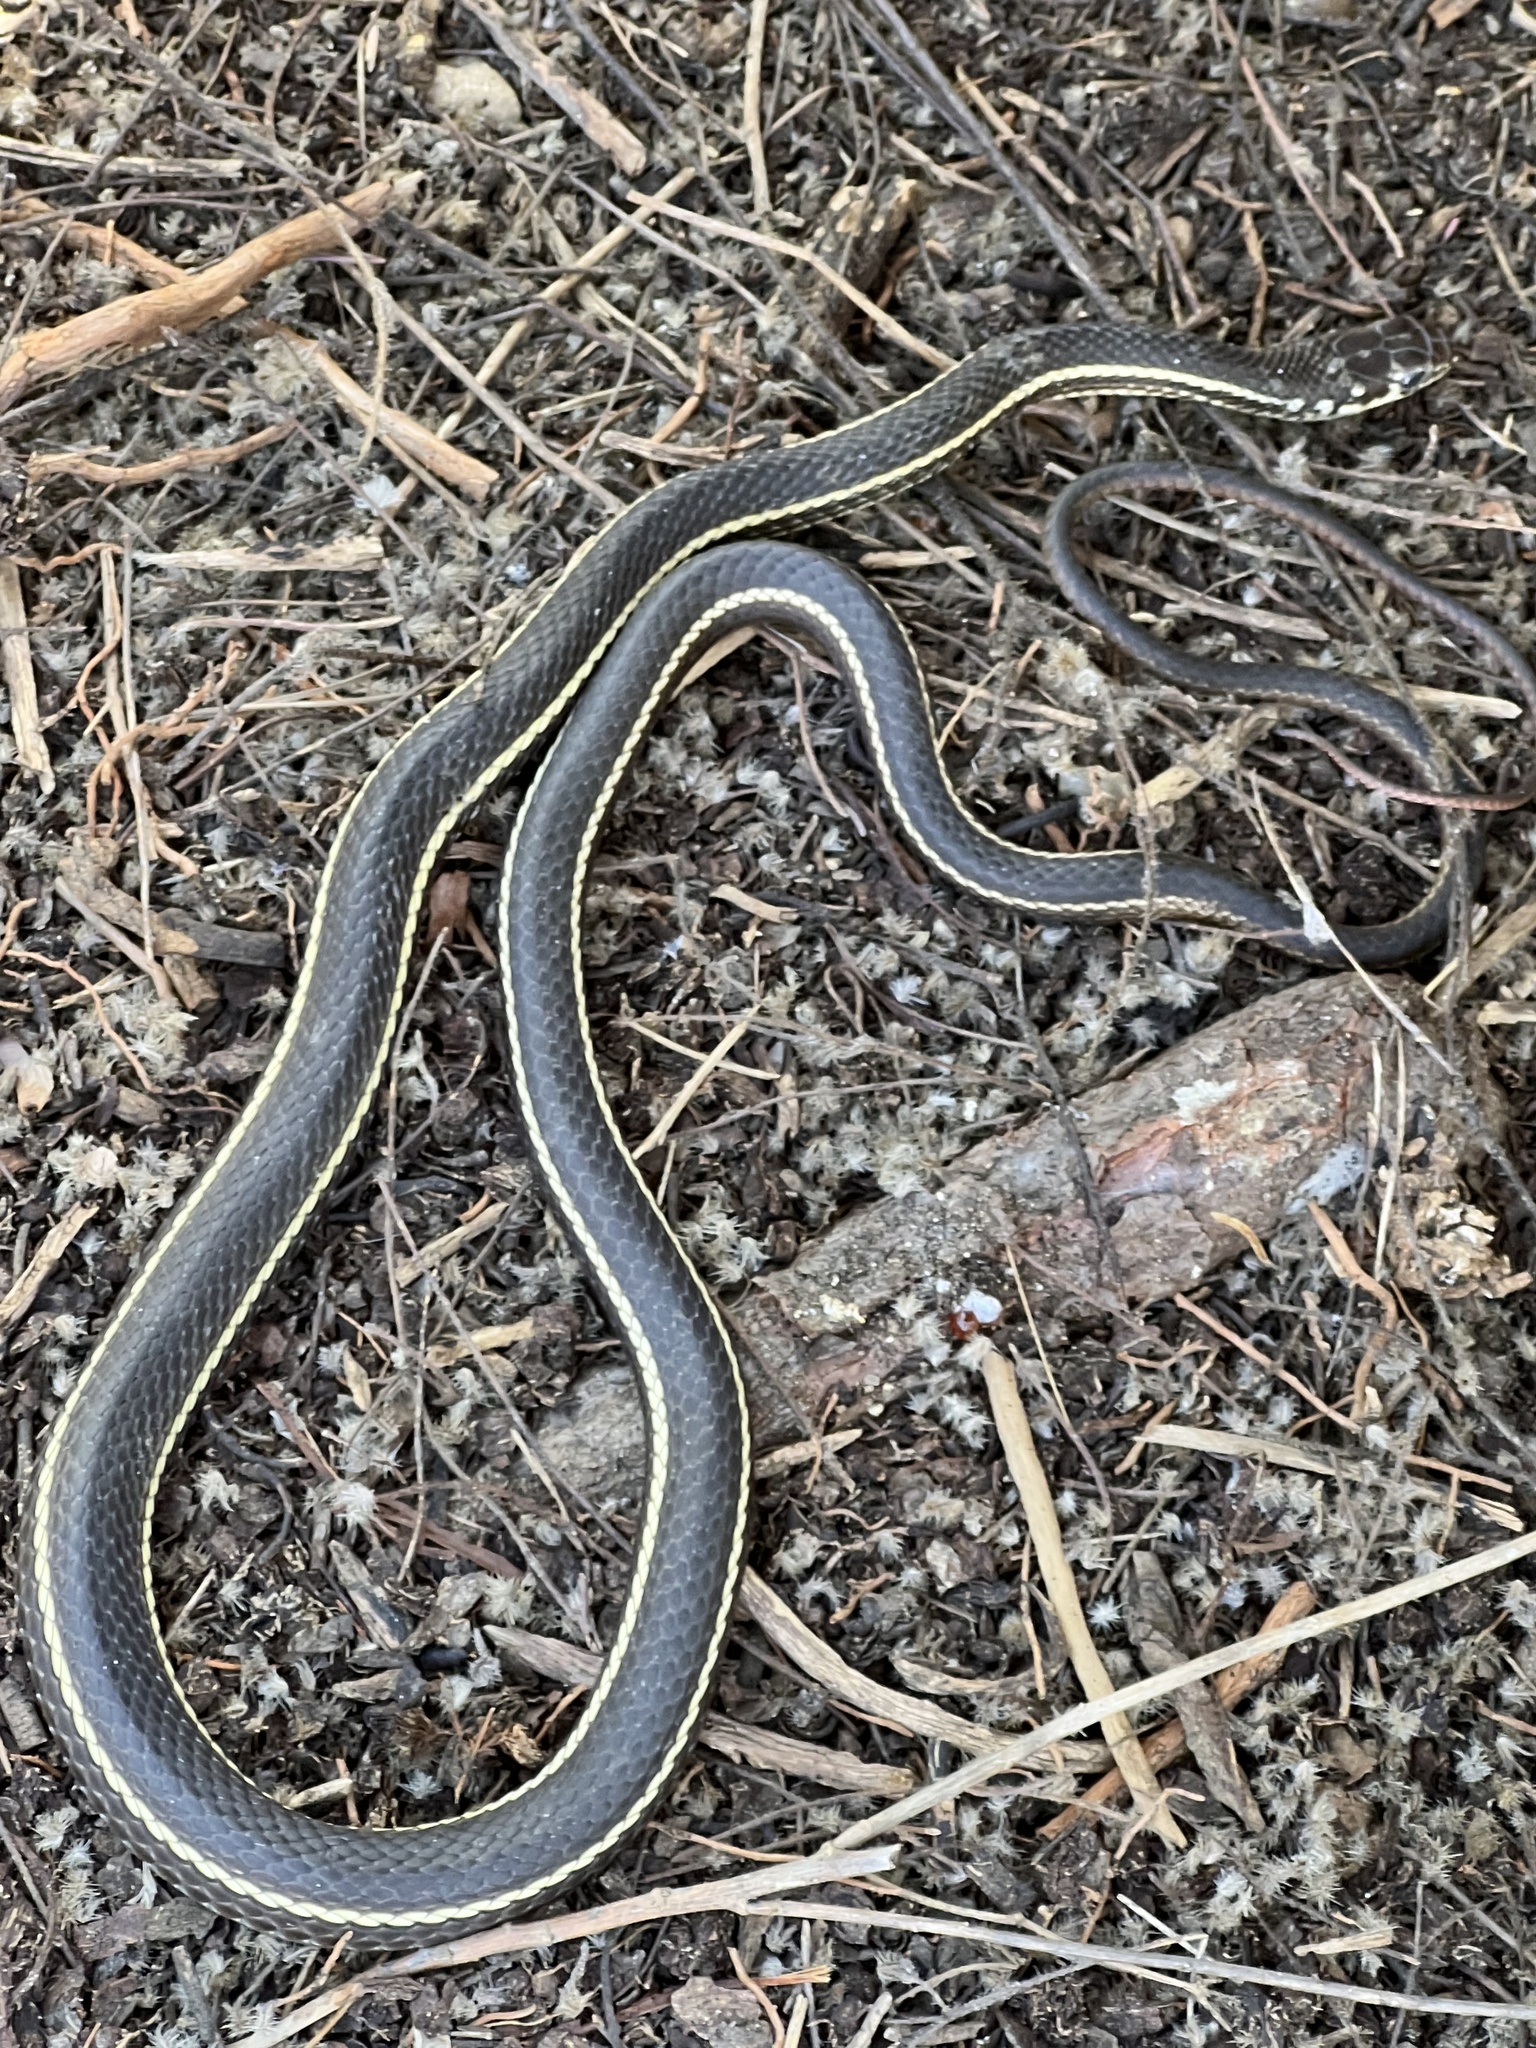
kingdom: Animalia
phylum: Chordata
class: Squamata
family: Colubridae
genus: Masticophis
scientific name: Masticophis lateralis
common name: Striped racer
